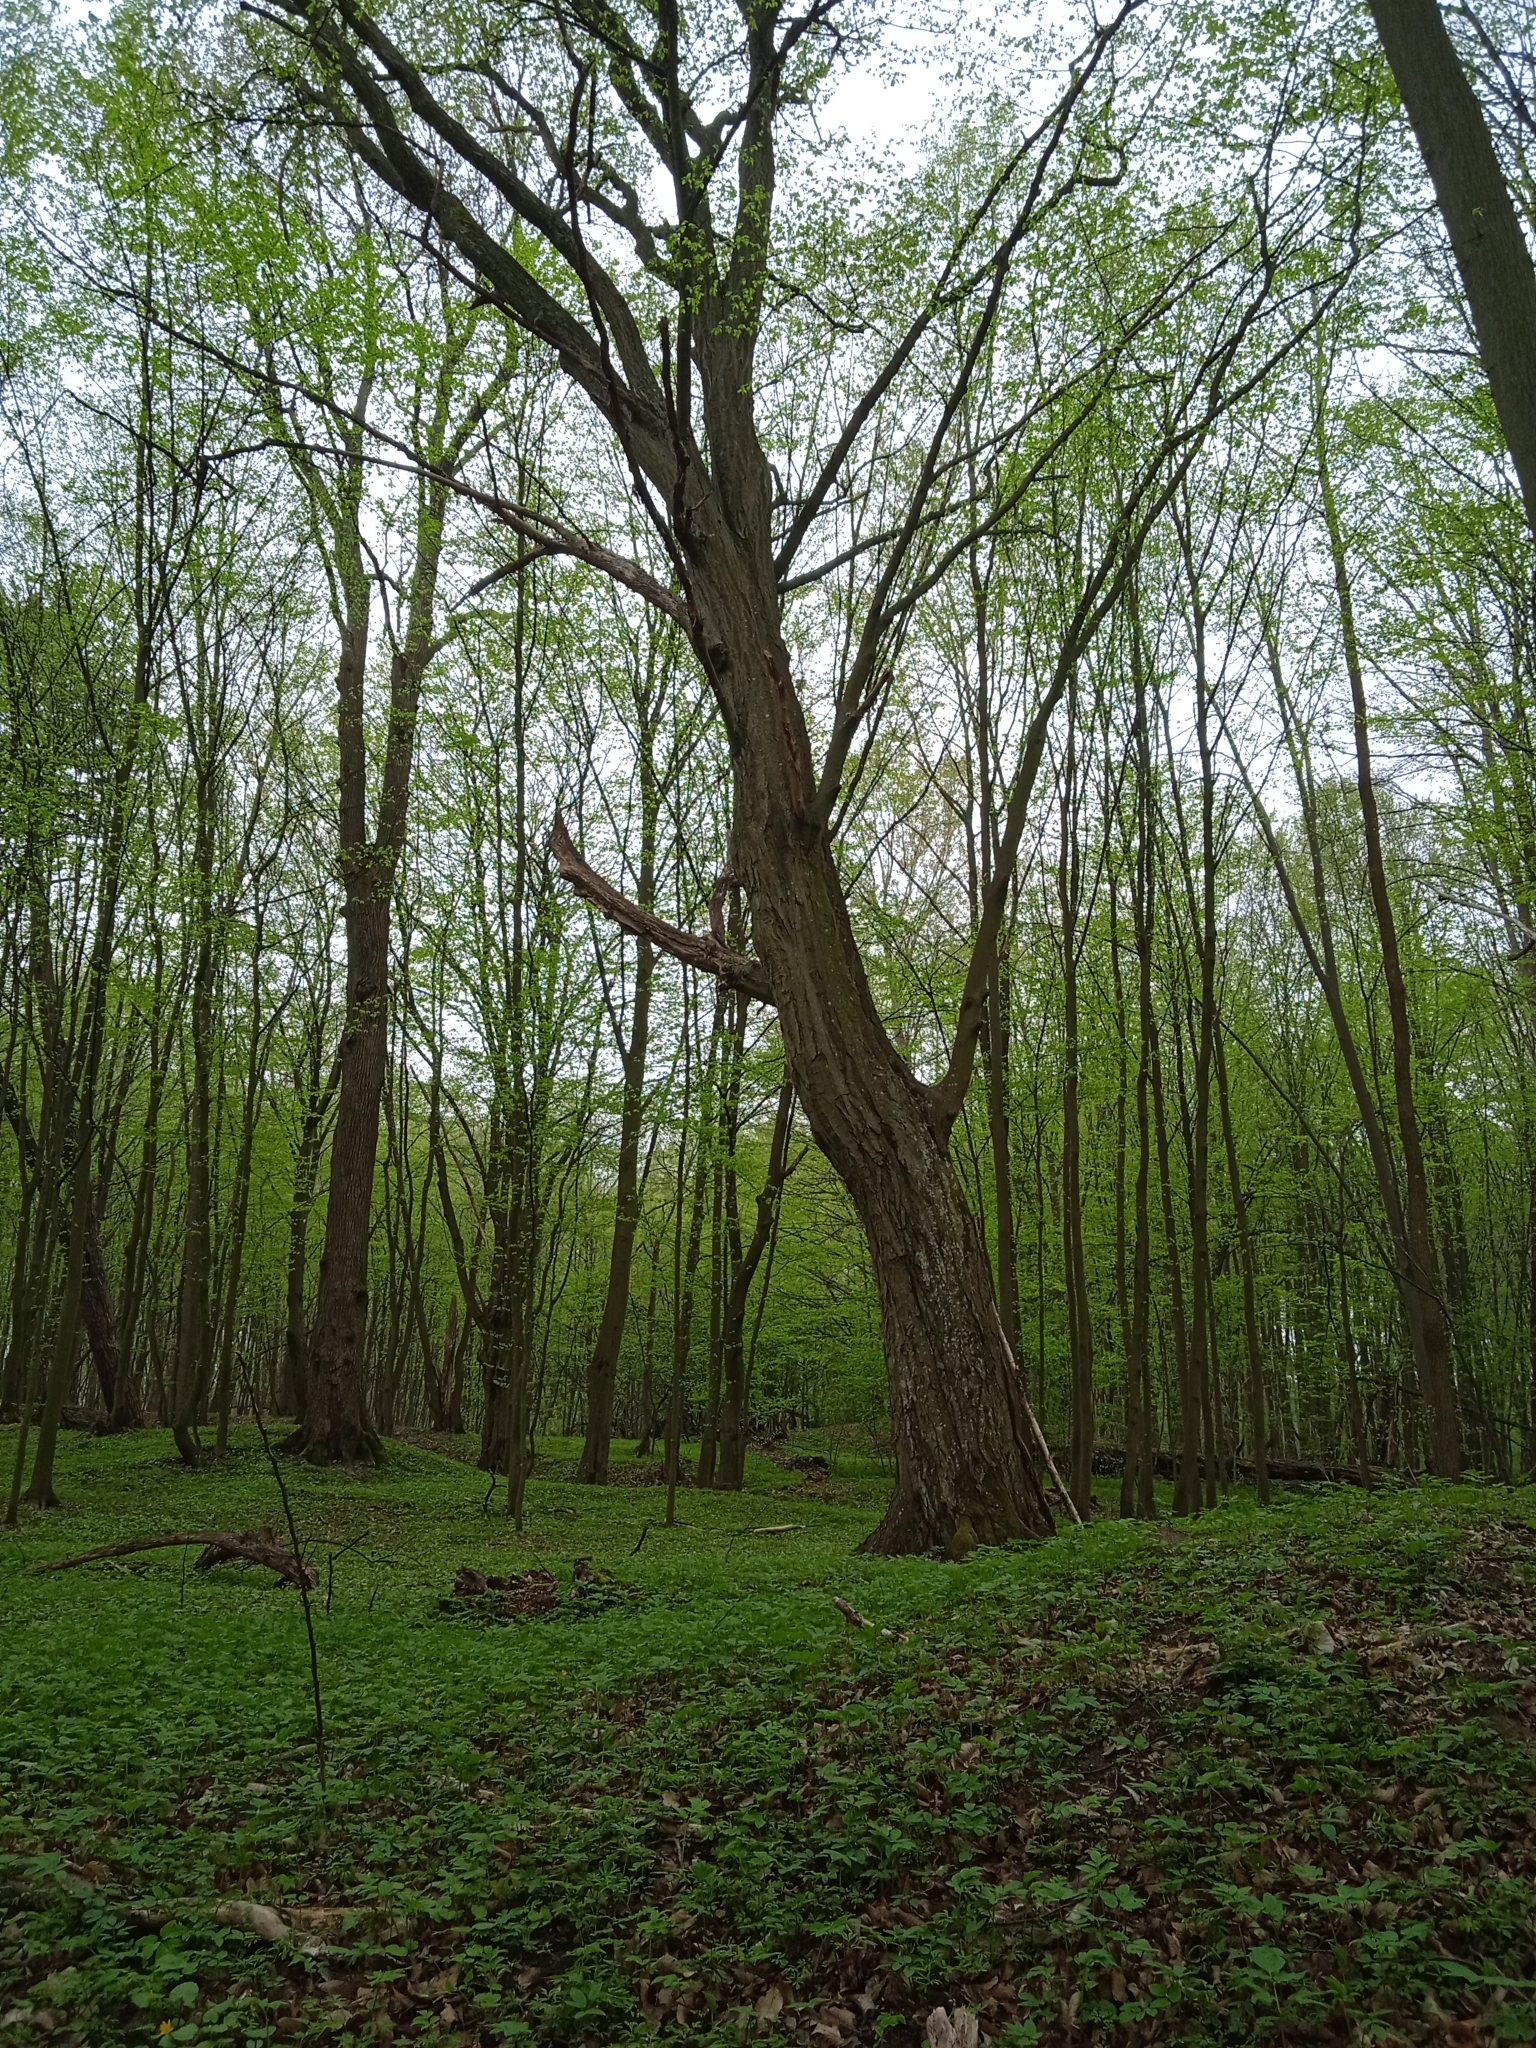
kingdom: Plantae
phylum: Tracheophyta
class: Magnoliopsida
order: Fagales
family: Betulaceae
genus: Carpinus
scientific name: Carpinus betulus
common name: Hornbeam
